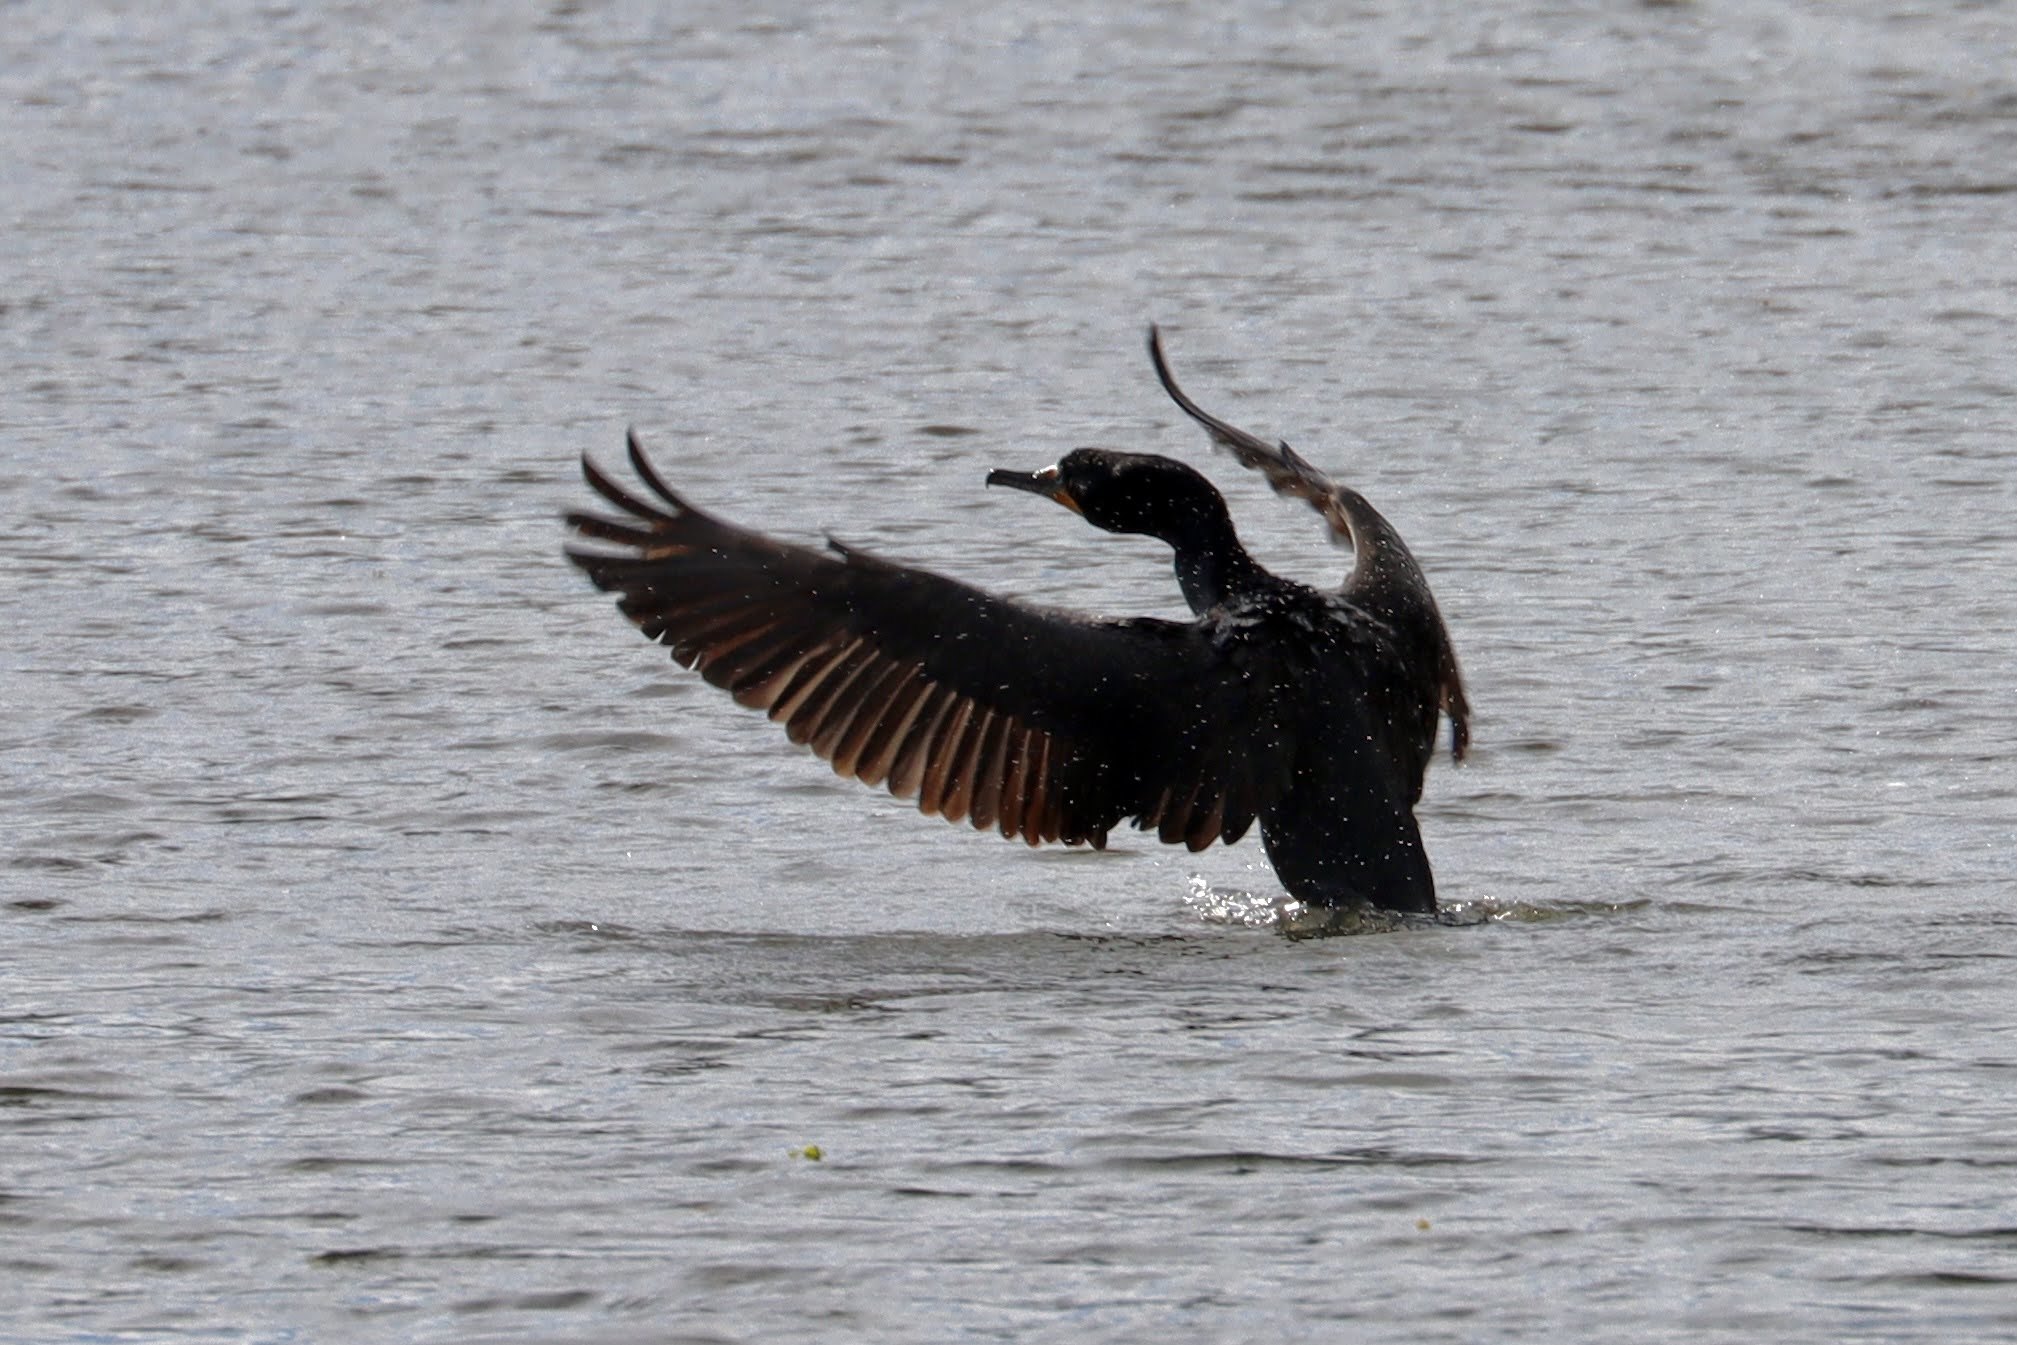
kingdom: Animalia
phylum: Chordata
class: Aves
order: Suliformes
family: Phalacrocoracidae
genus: Phalacrocorax
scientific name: Phalacrocorax auritus
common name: Double-crested cormorant
